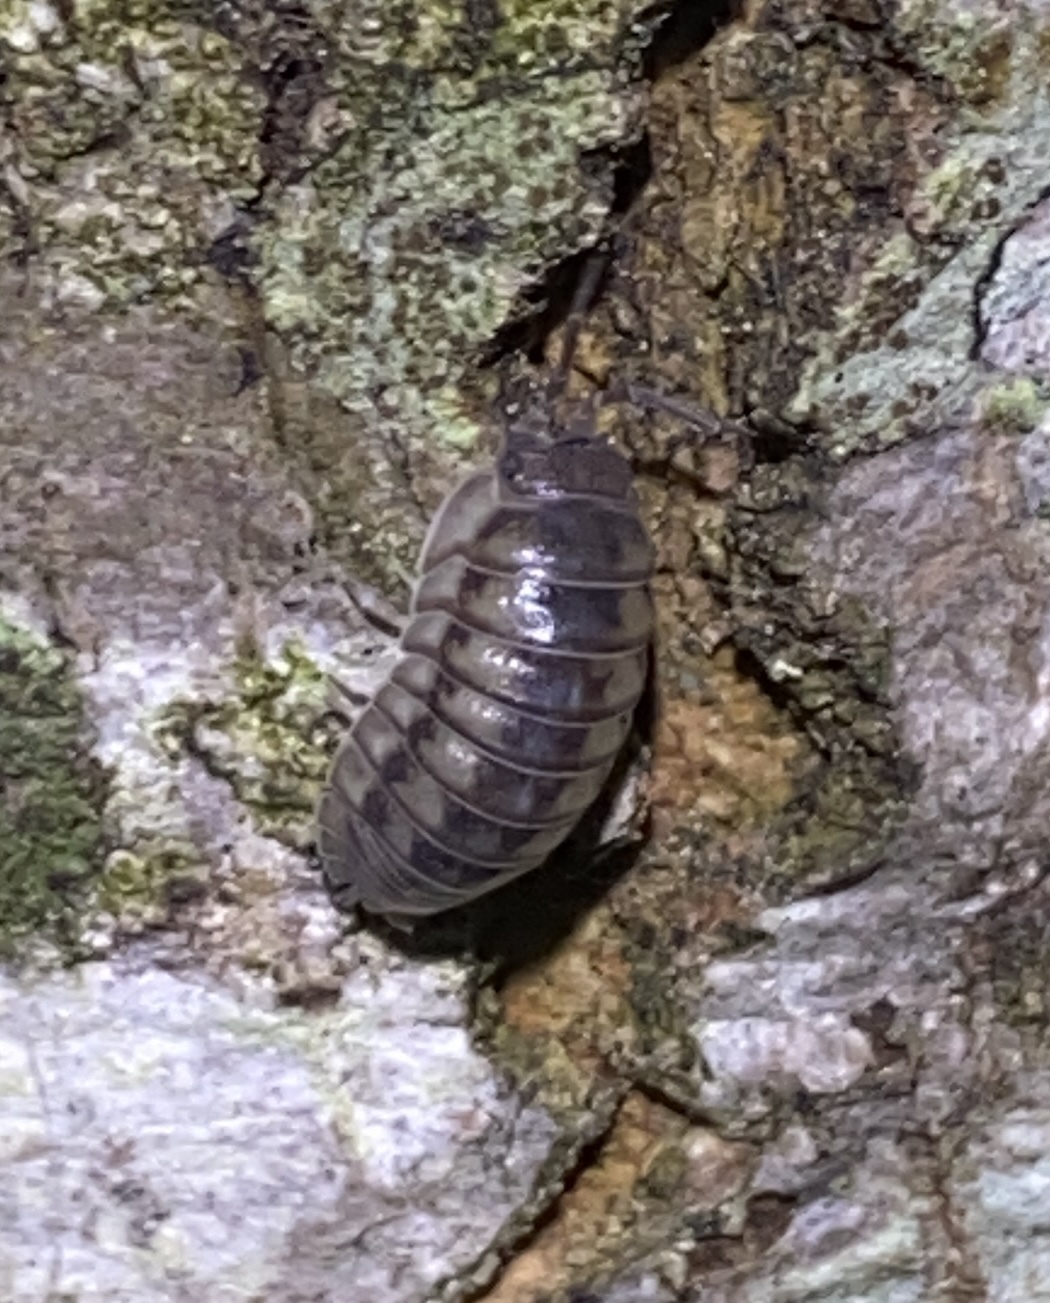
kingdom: Animalia
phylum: Arthropoda
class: Malacostraca
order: Isopoda
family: Armadillidiidae
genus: Armadillidium
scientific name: Armadillidium nasatum
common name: Isopod
